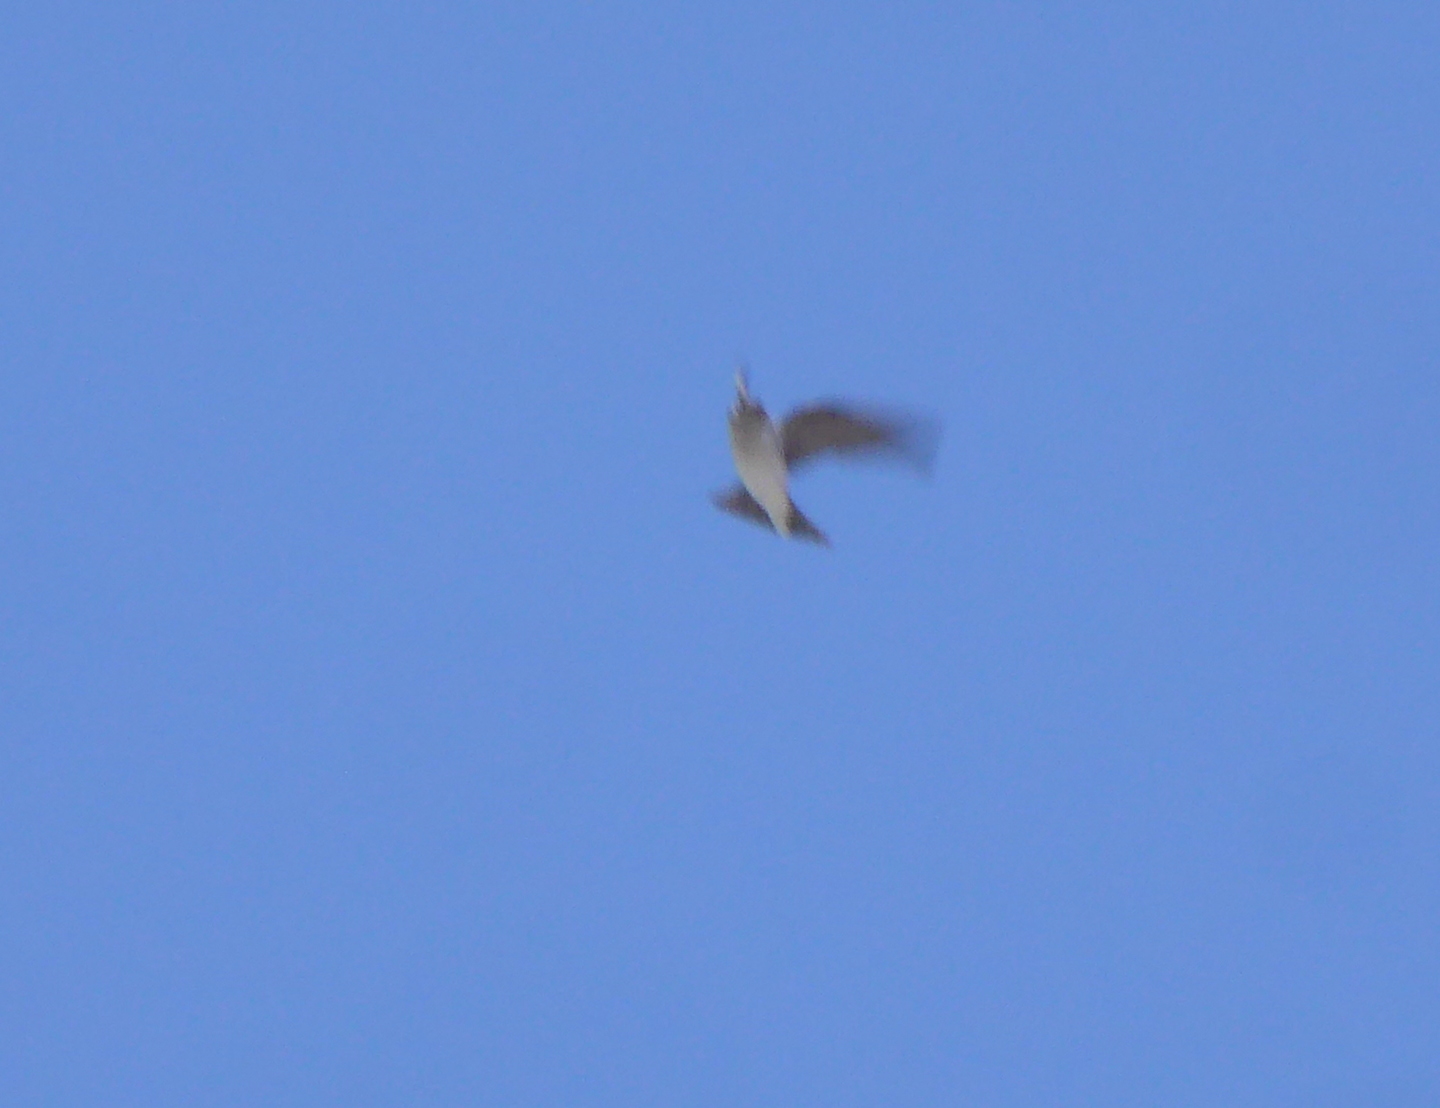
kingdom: Animalia
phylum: Chordata
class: Aves
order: Passeriformes
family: Hirundinidae
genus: Tachycineta
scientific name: Tachycineta thalassina
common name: Violet-green swallow
